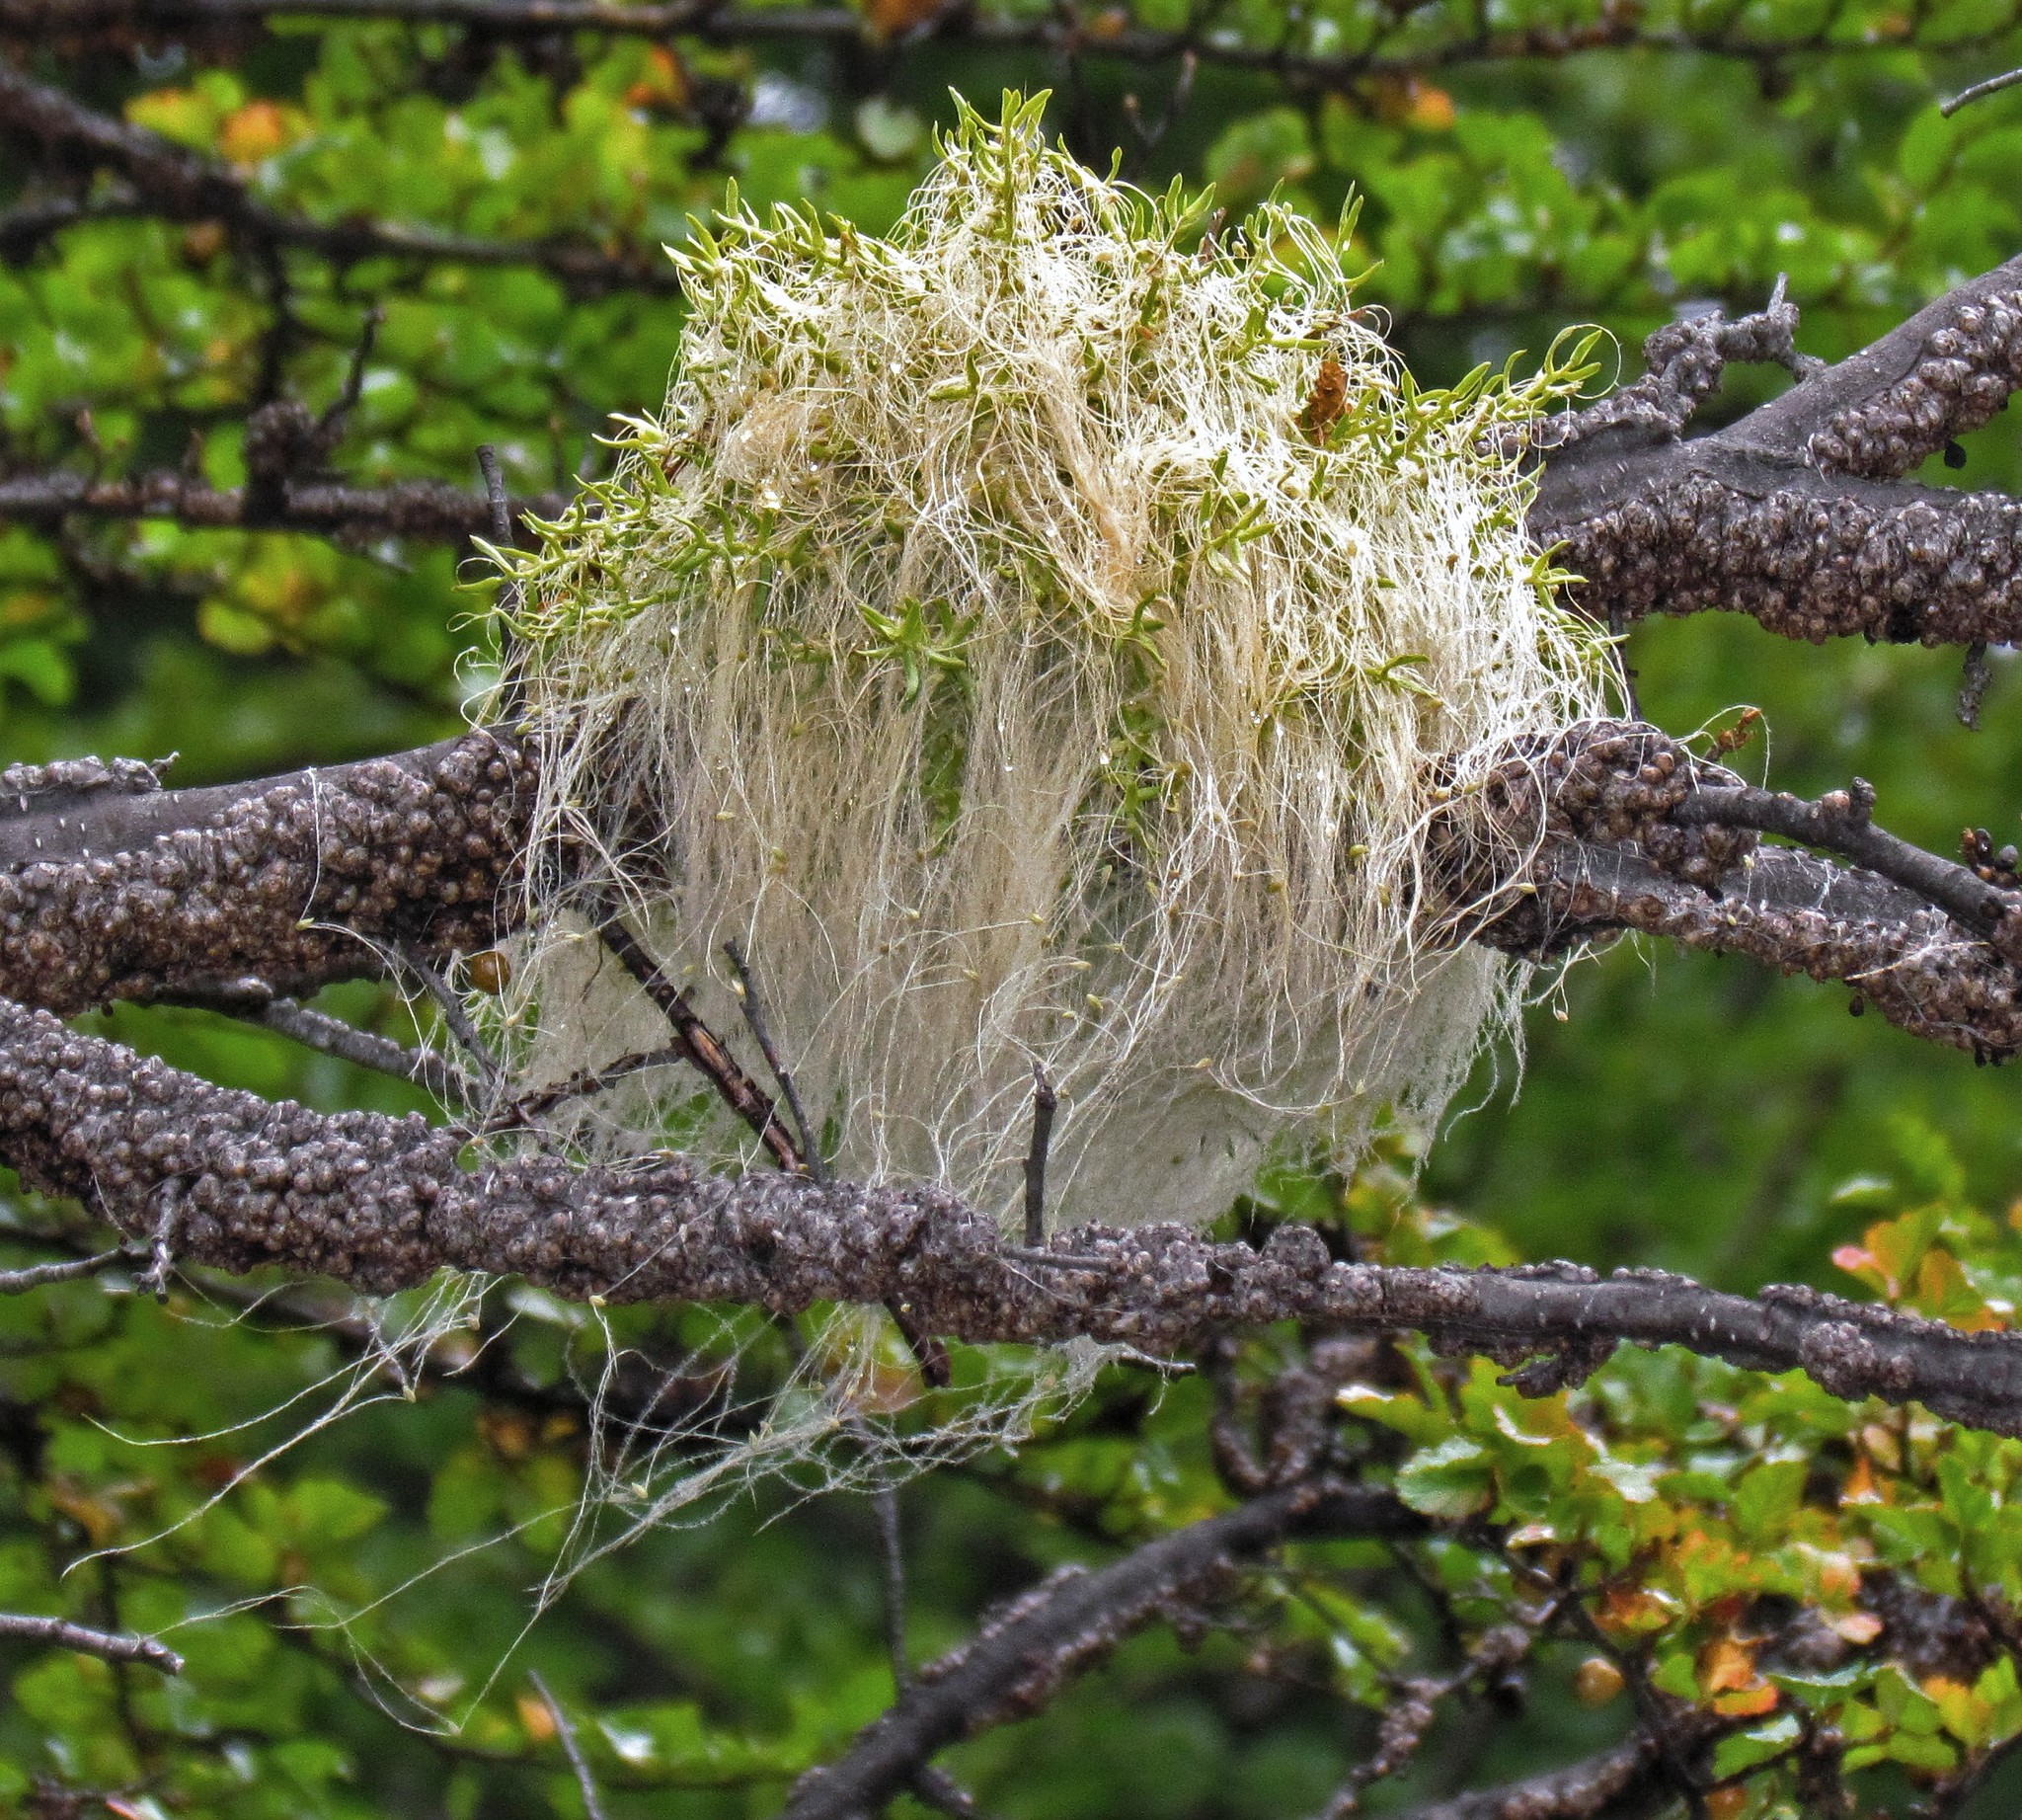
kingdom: Plantae
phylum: Tracheophyta
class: Magnoliopsida
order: Santalales
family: Misodendraceae
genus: Misodendrum
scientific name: Misodendrum linearifolium
